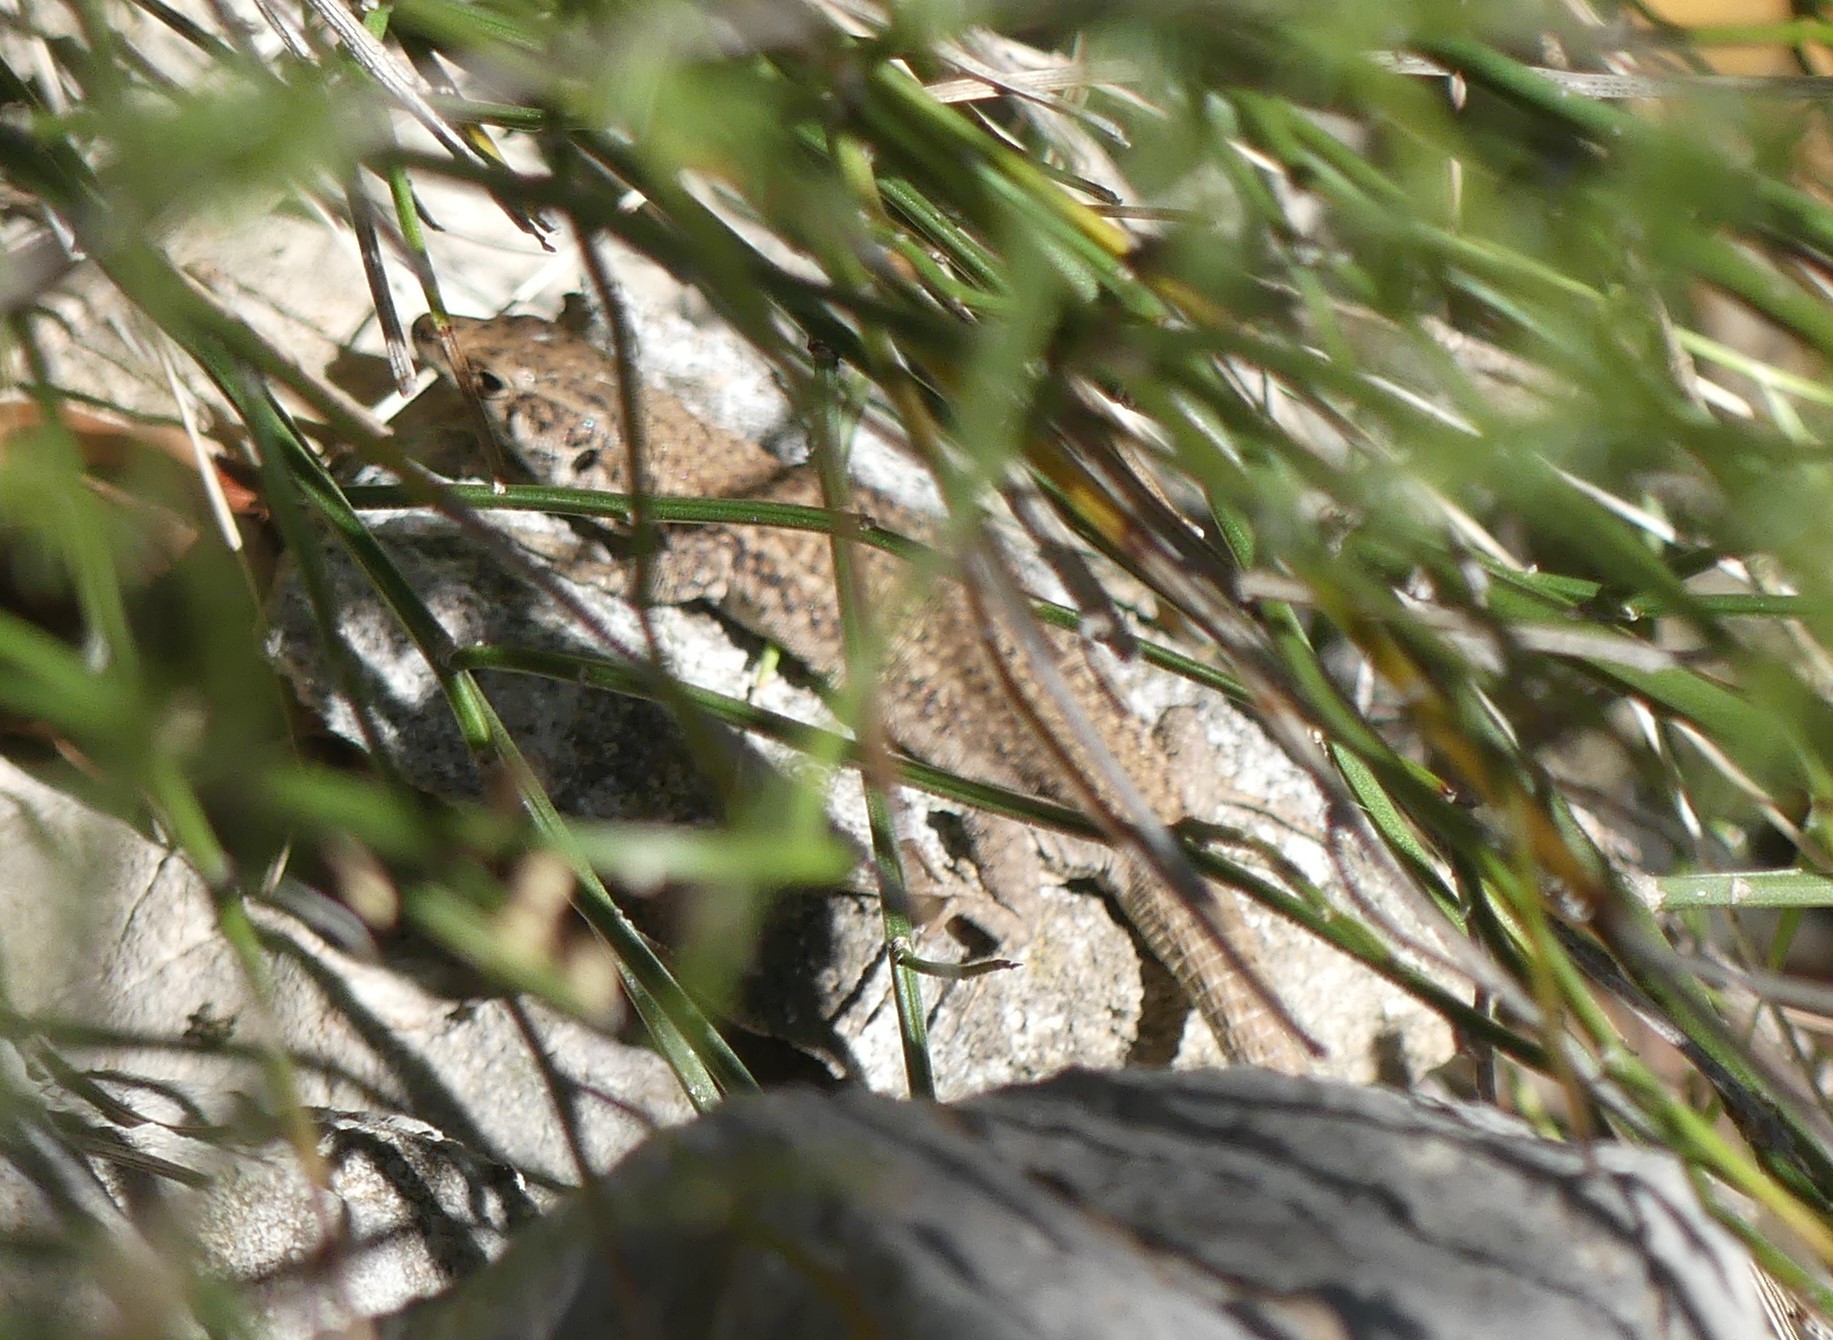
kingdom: Animalia
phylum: Chordata
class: Squamata
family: Lacertidae
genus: Podarcis
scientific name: Podarcis liolepis
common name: Catalonian wall lizard
